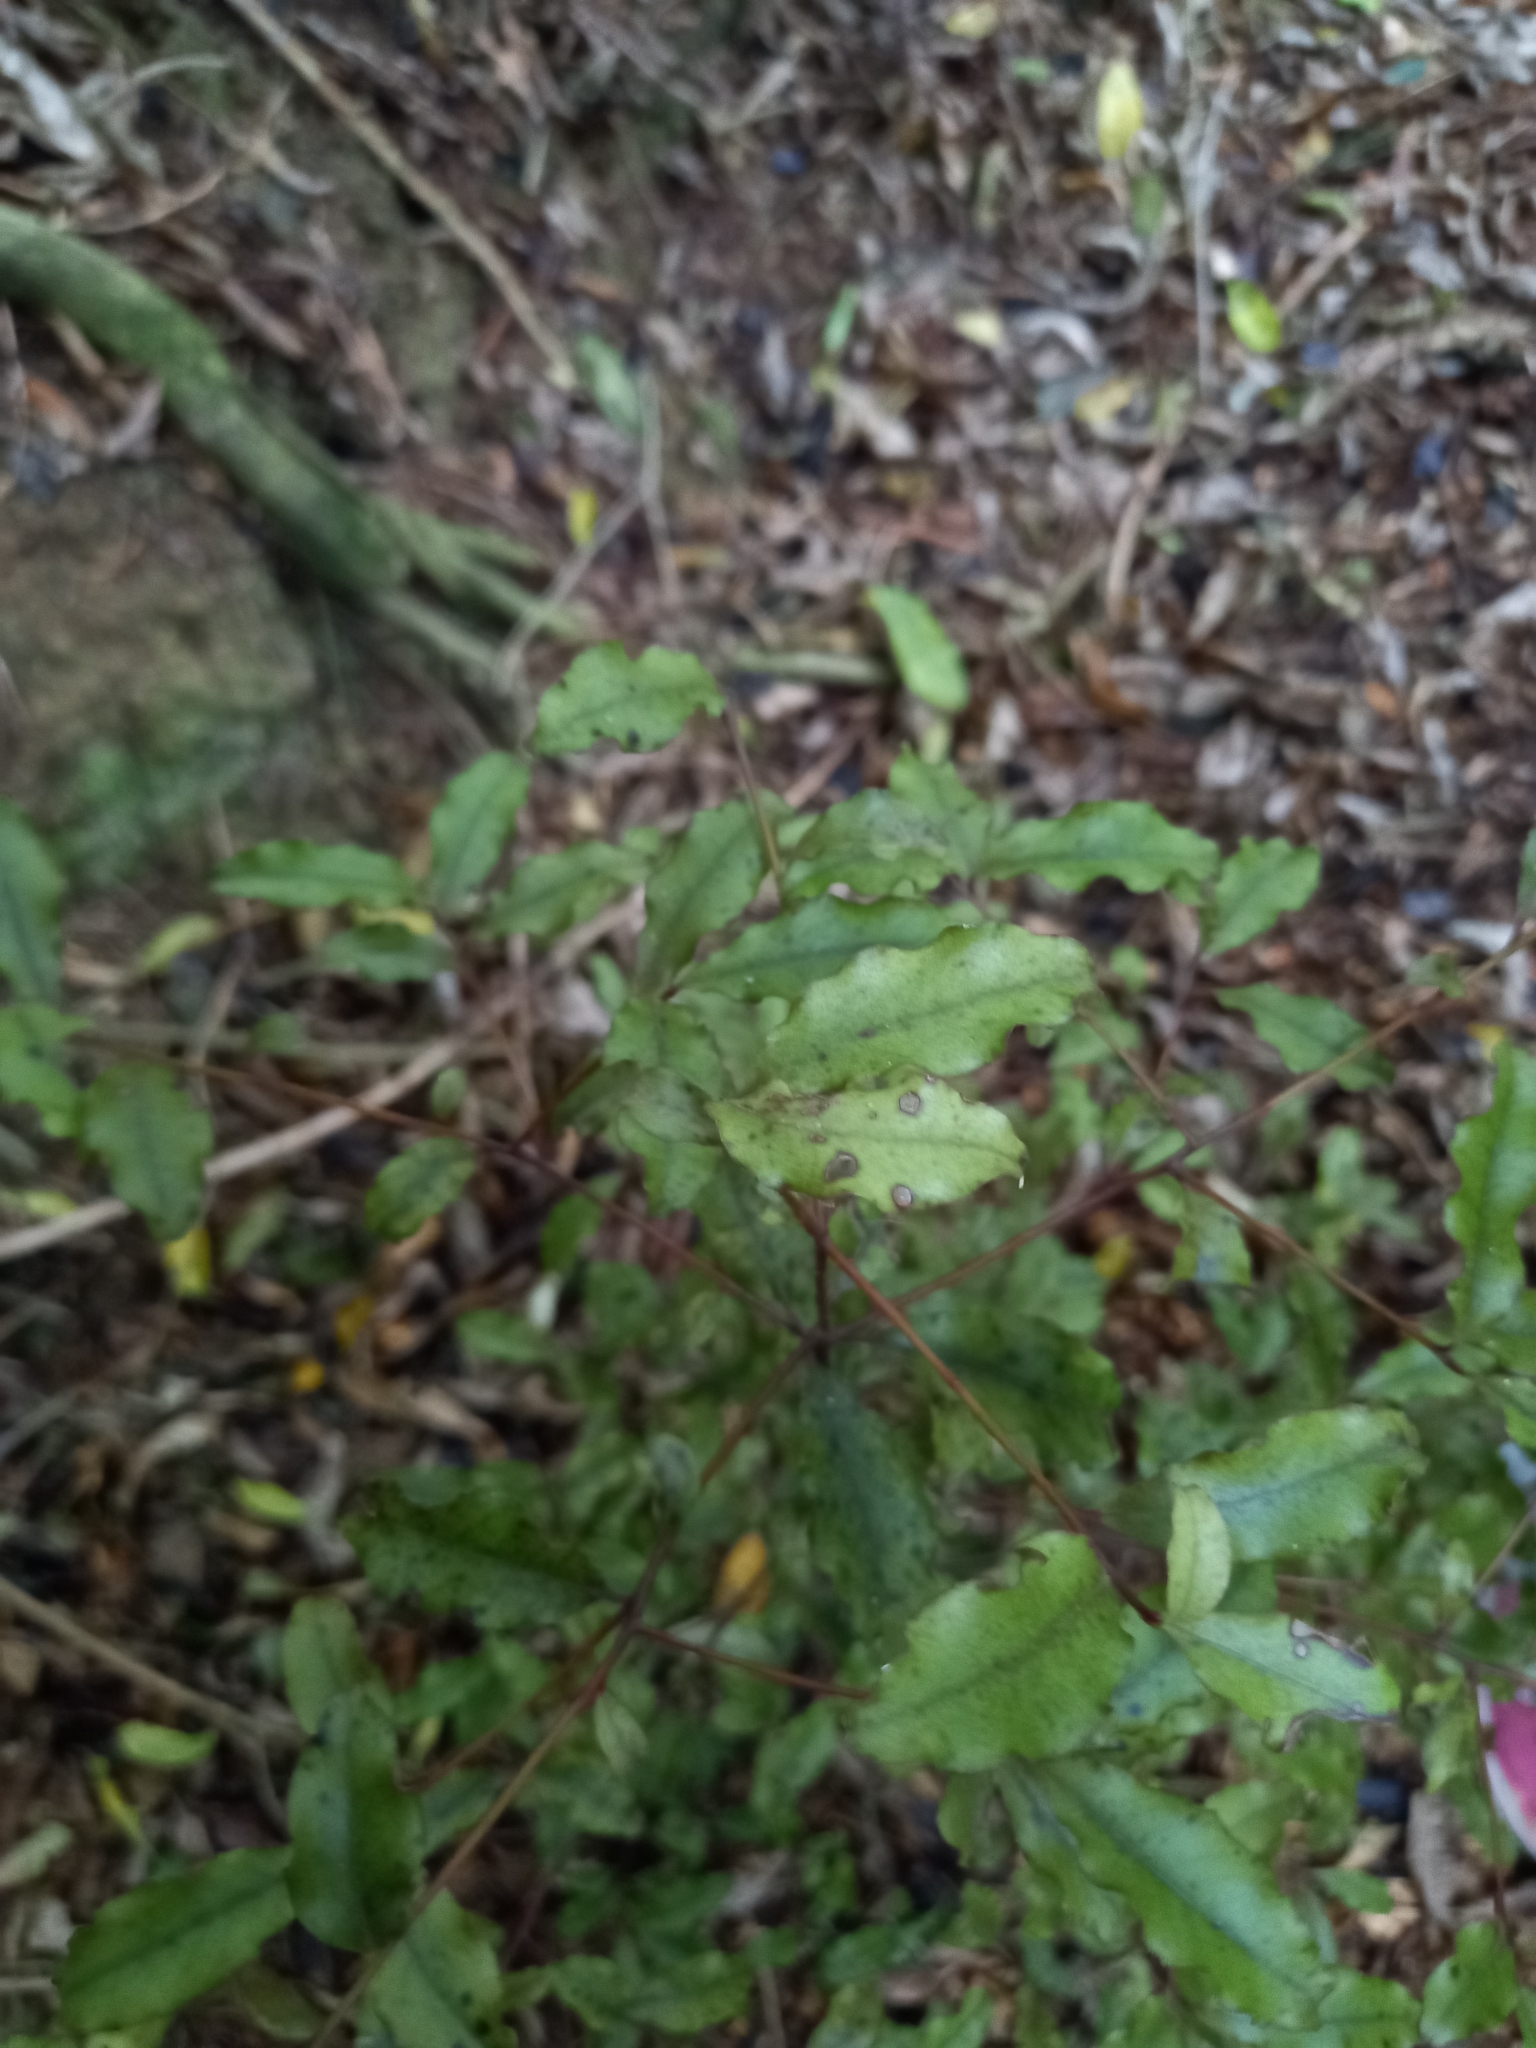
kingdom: Plantae
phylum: Tracheophyta
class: Magnoliopsida
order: Ericales
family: Primulaceae
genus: Myrsine
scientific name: Myrsine australis
